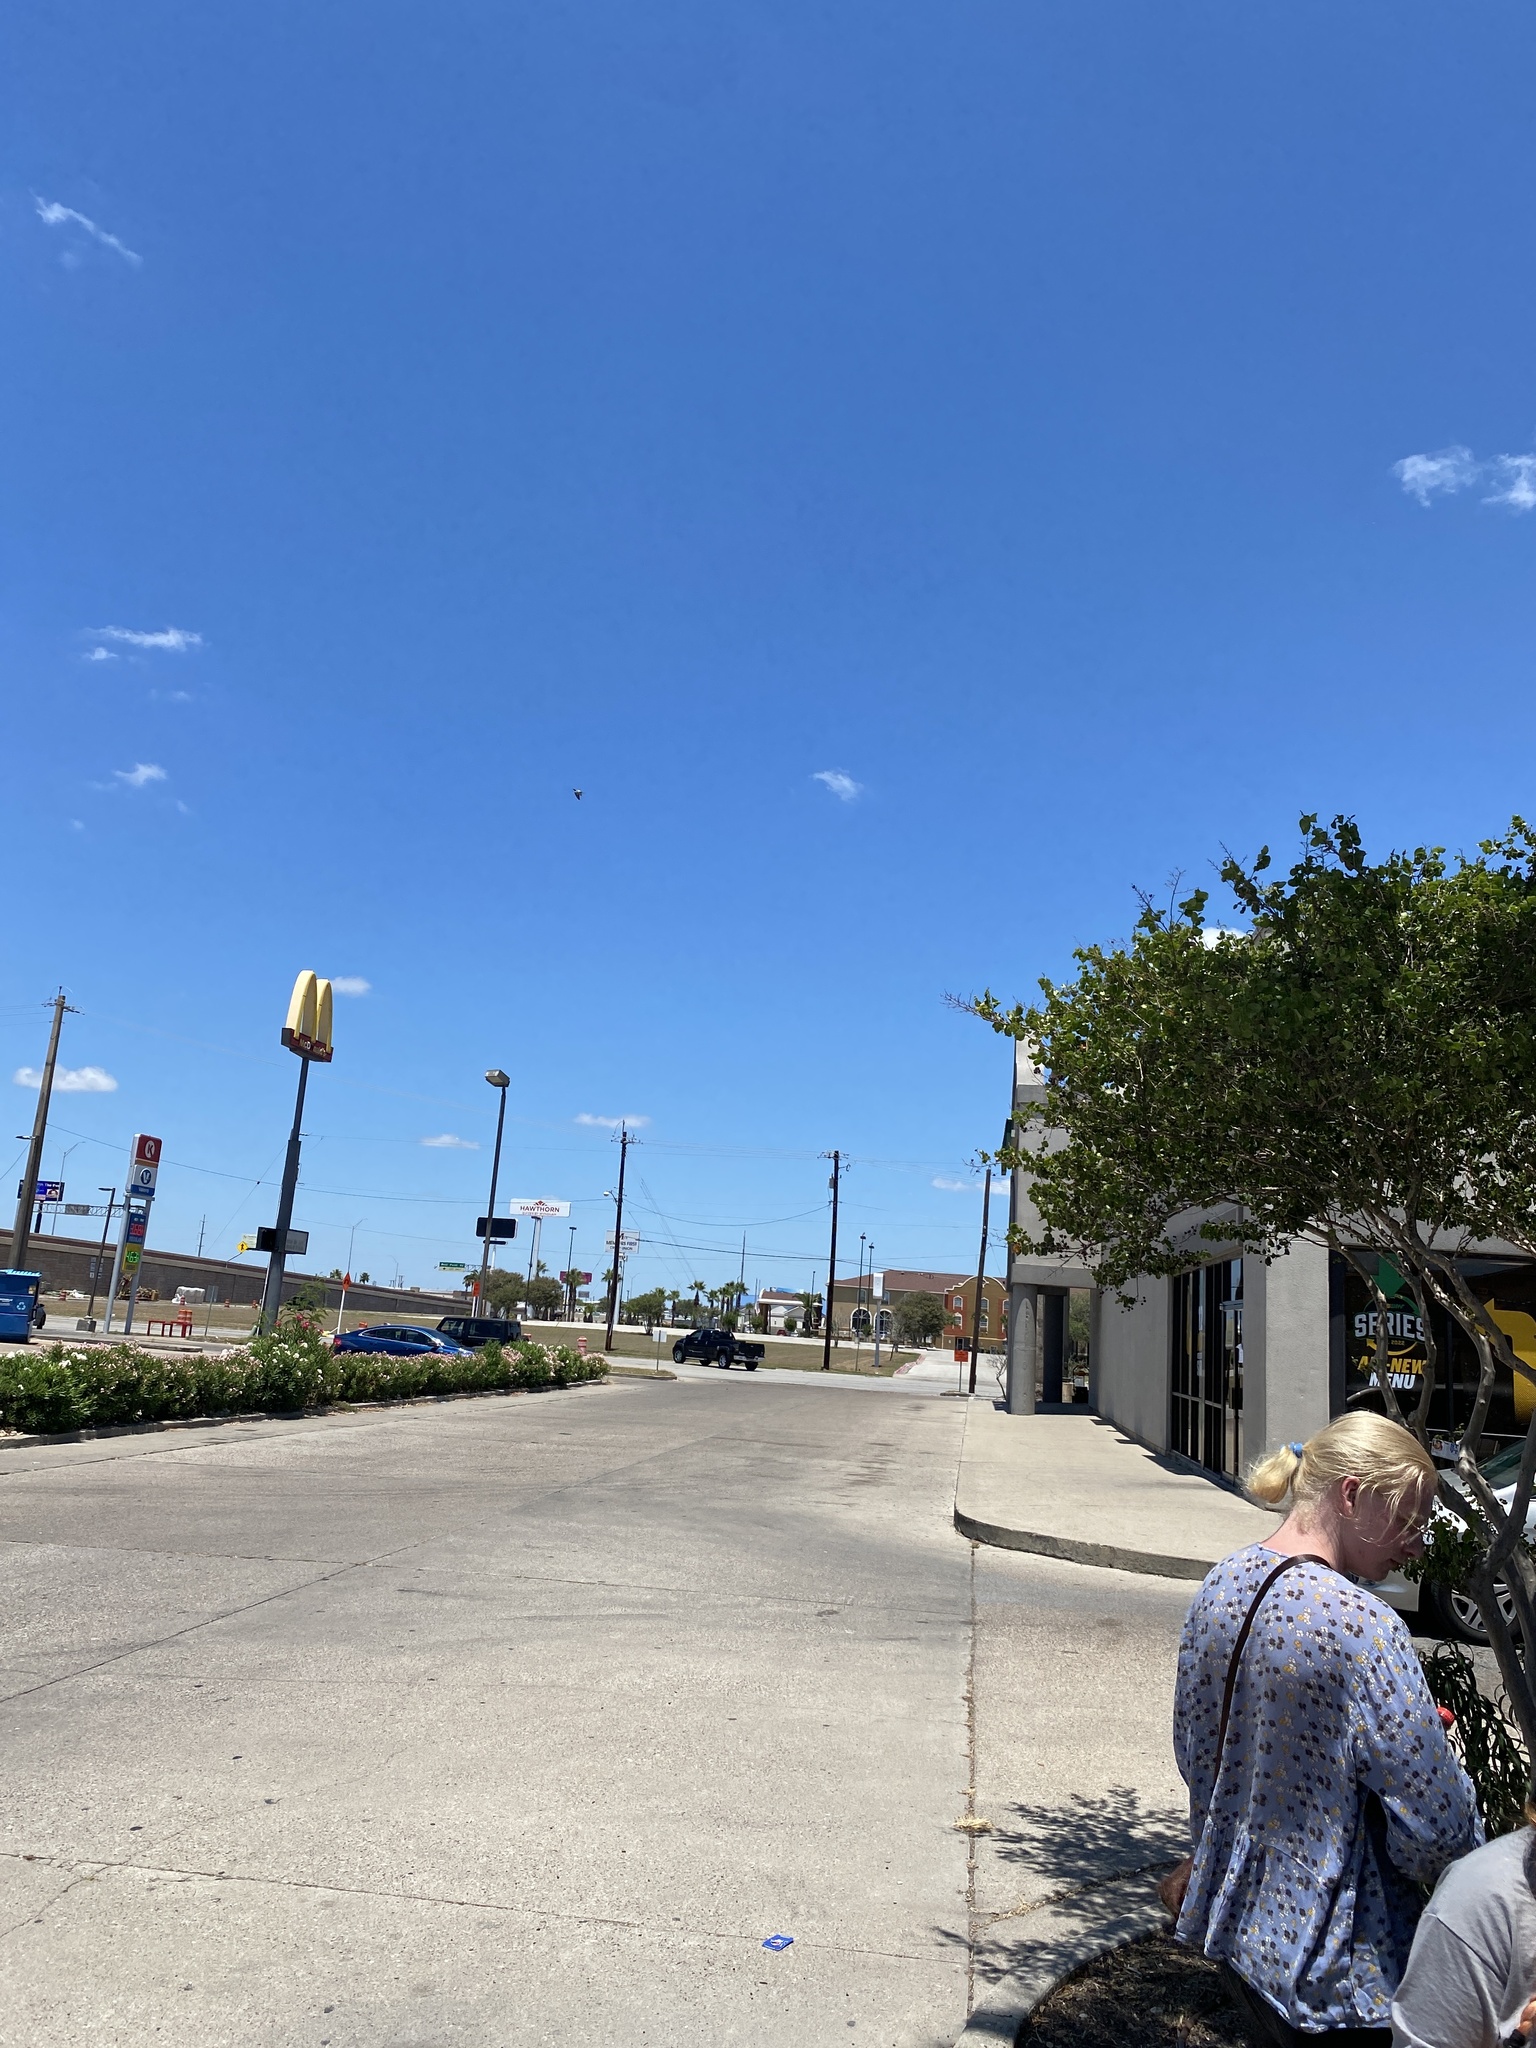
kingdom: Animalia
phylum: Chordata
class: Aves
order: Columbiformes
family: Columbidae
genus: Columba
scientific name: Columba livia
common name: Rock pigeon
